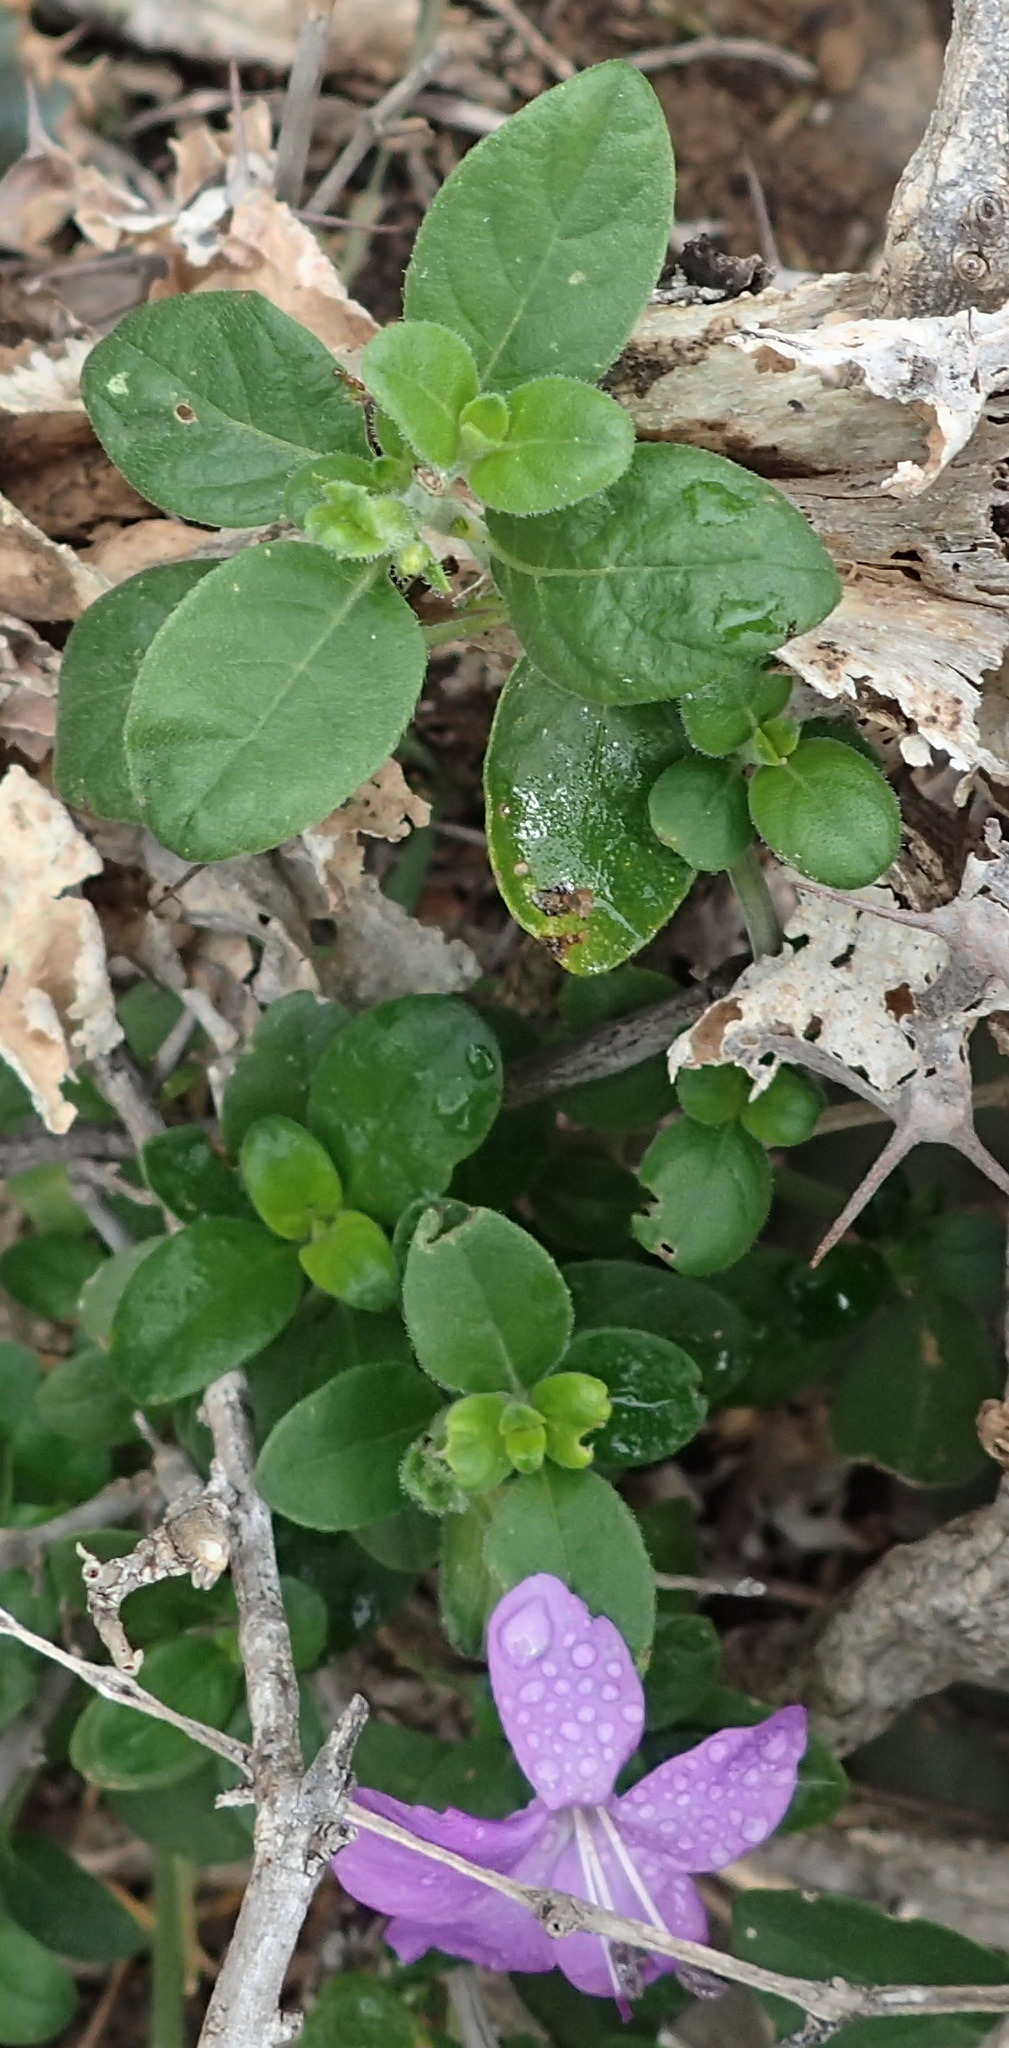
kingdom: Plantae
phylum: Tracheophyta
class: Magnoliopsida
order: Lamiales
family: Acanthaceae
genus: Barleria
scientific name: Barleria obtusa
